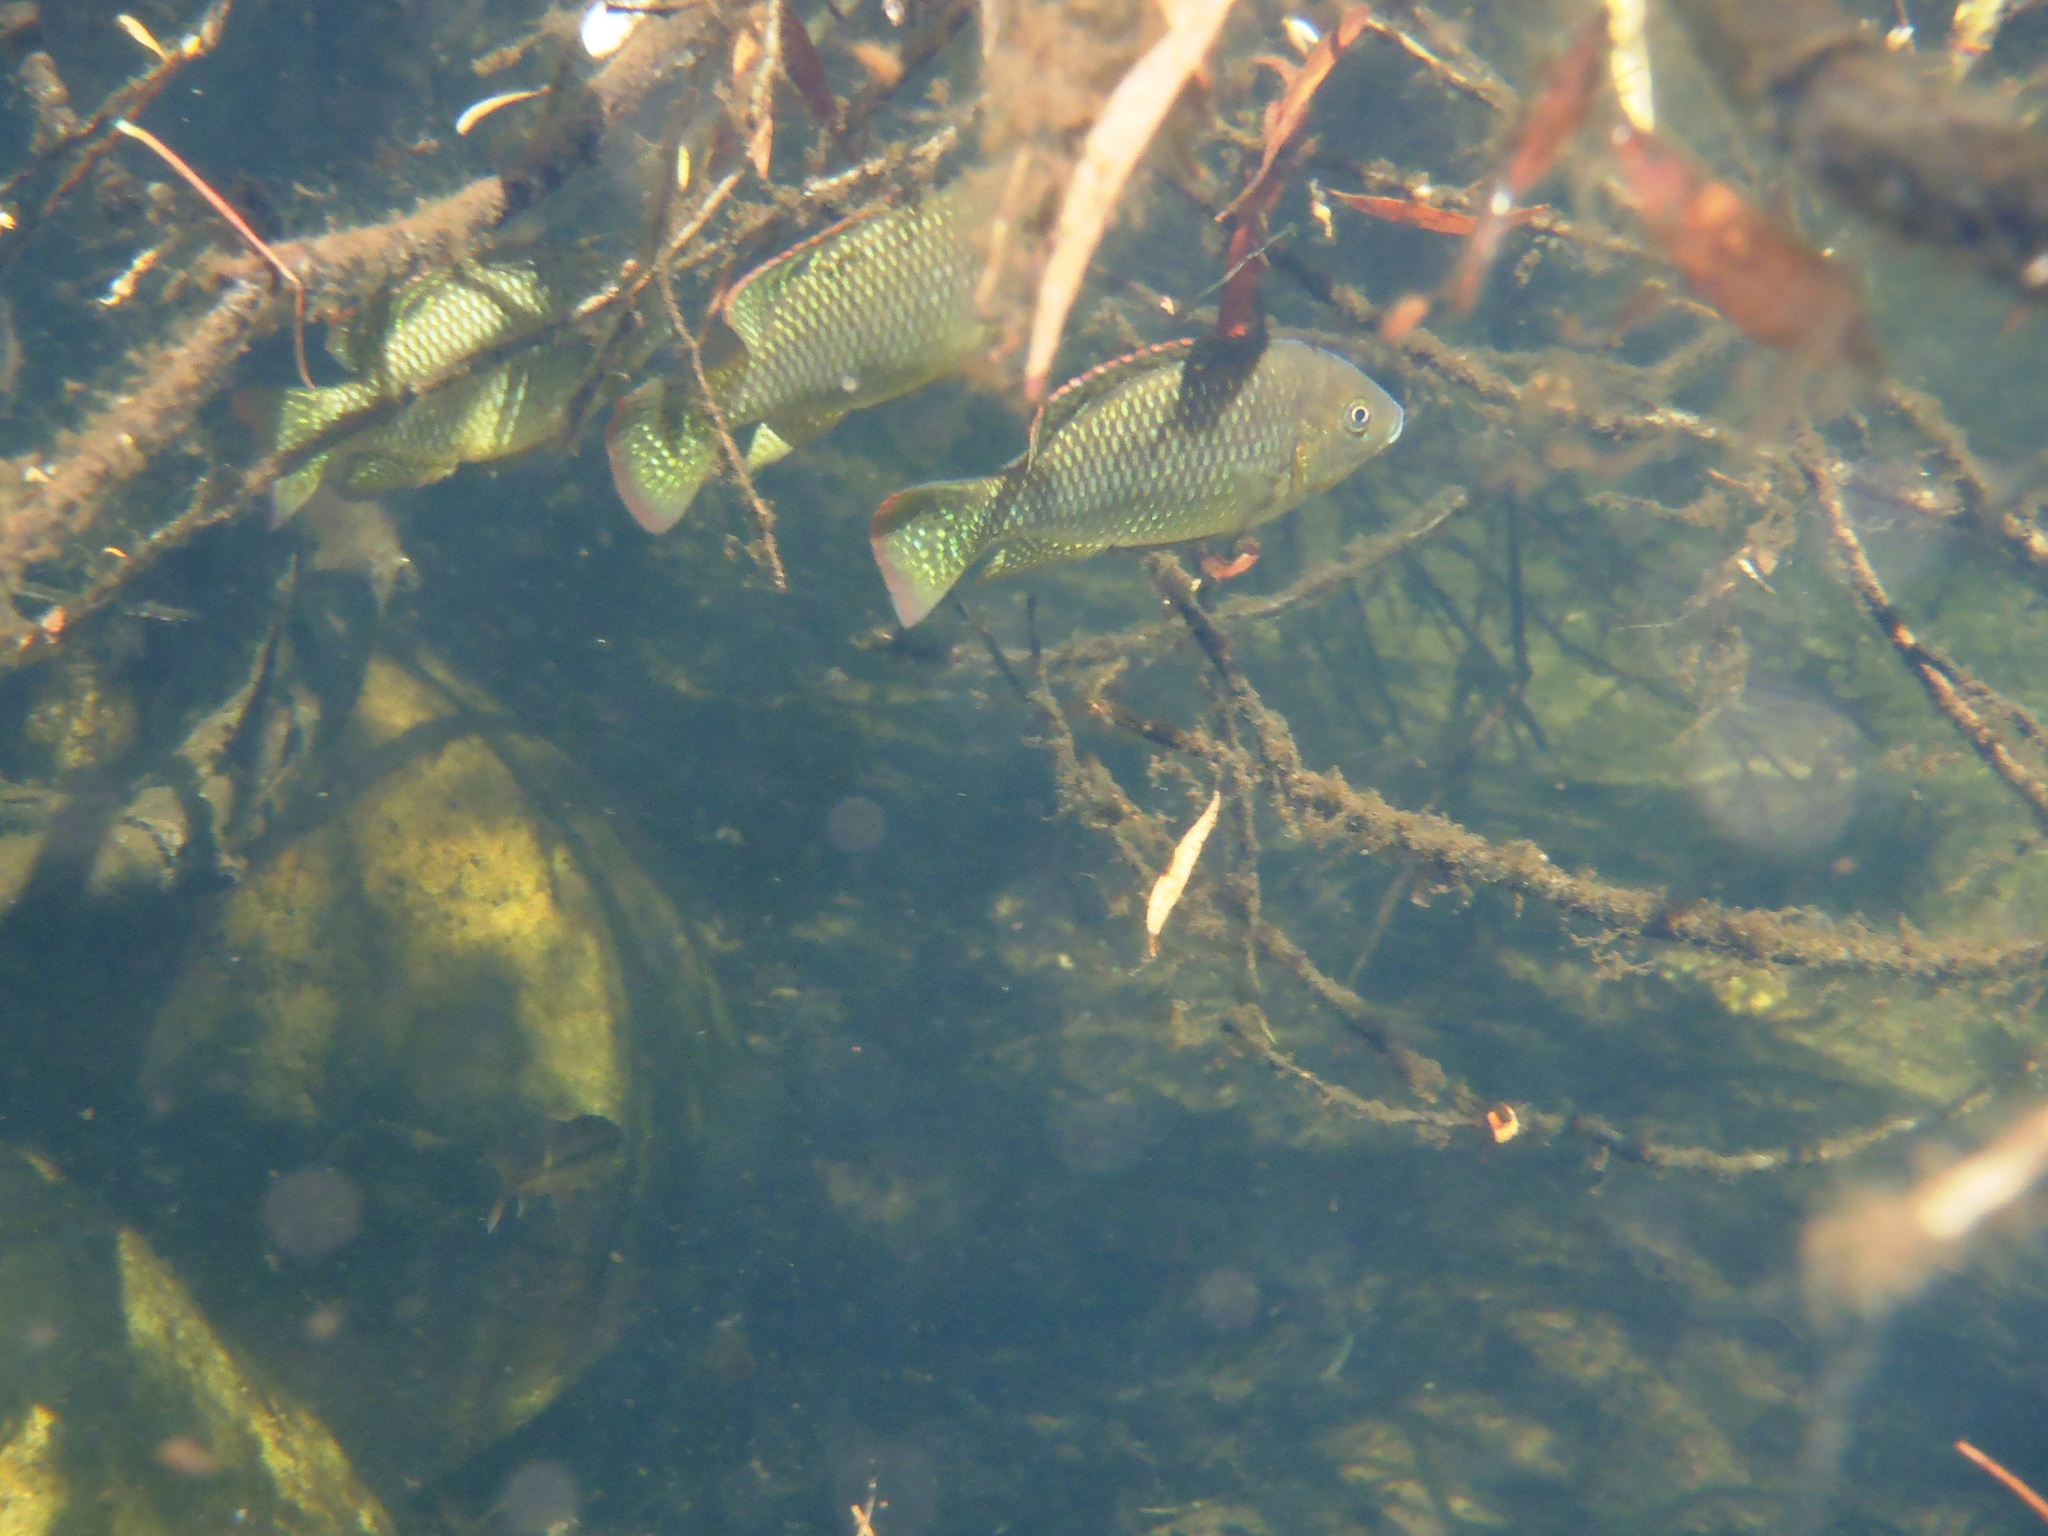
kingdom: Animalia
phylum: Chordata
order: Perciformes
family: Cichlidae
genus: Oreochromis
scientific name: Oreochromis mossambicus
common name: Mozambique tilapia
